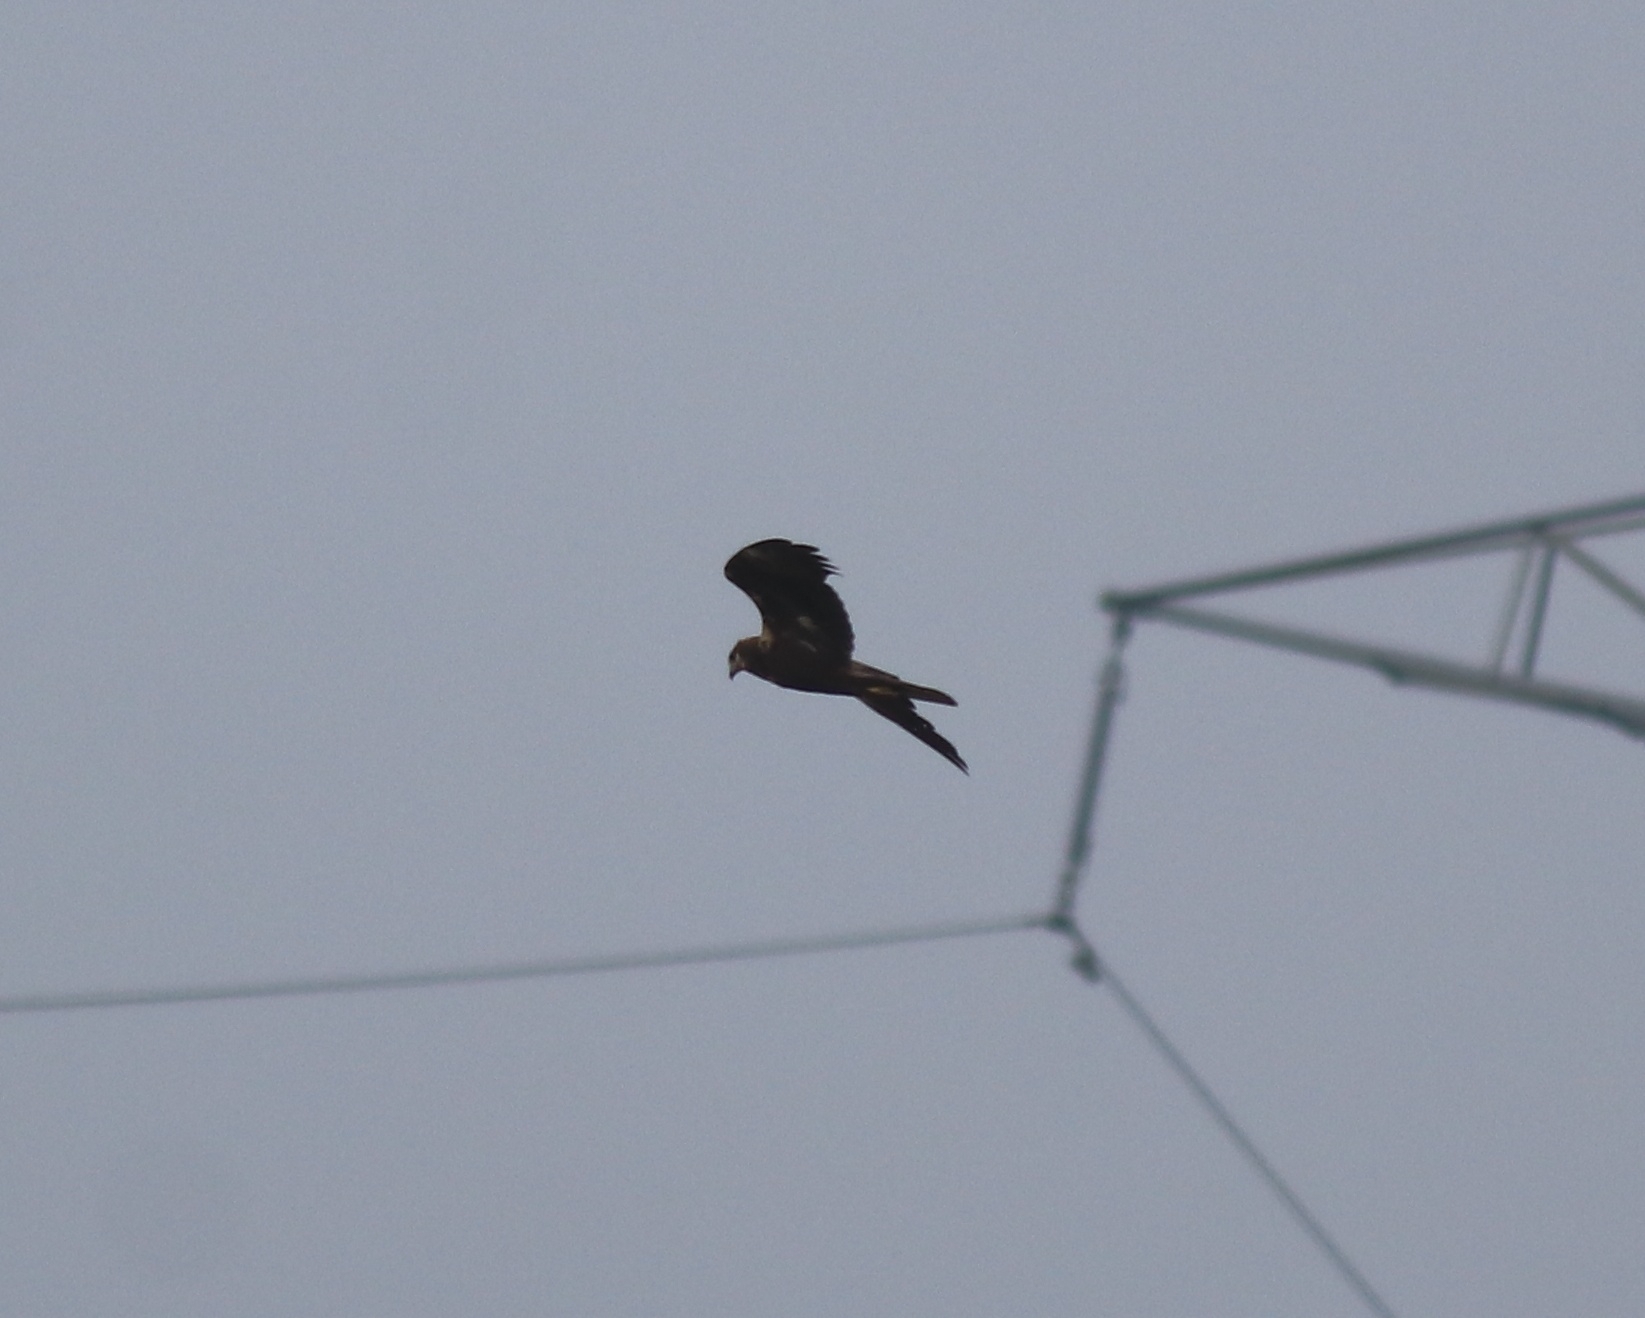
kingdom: Animalia
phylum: Chordata
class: Aves
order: Accipitriformes
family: Accipitridae
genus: Circus
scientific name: Circus aeruginosus
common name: Western marsh harrier
